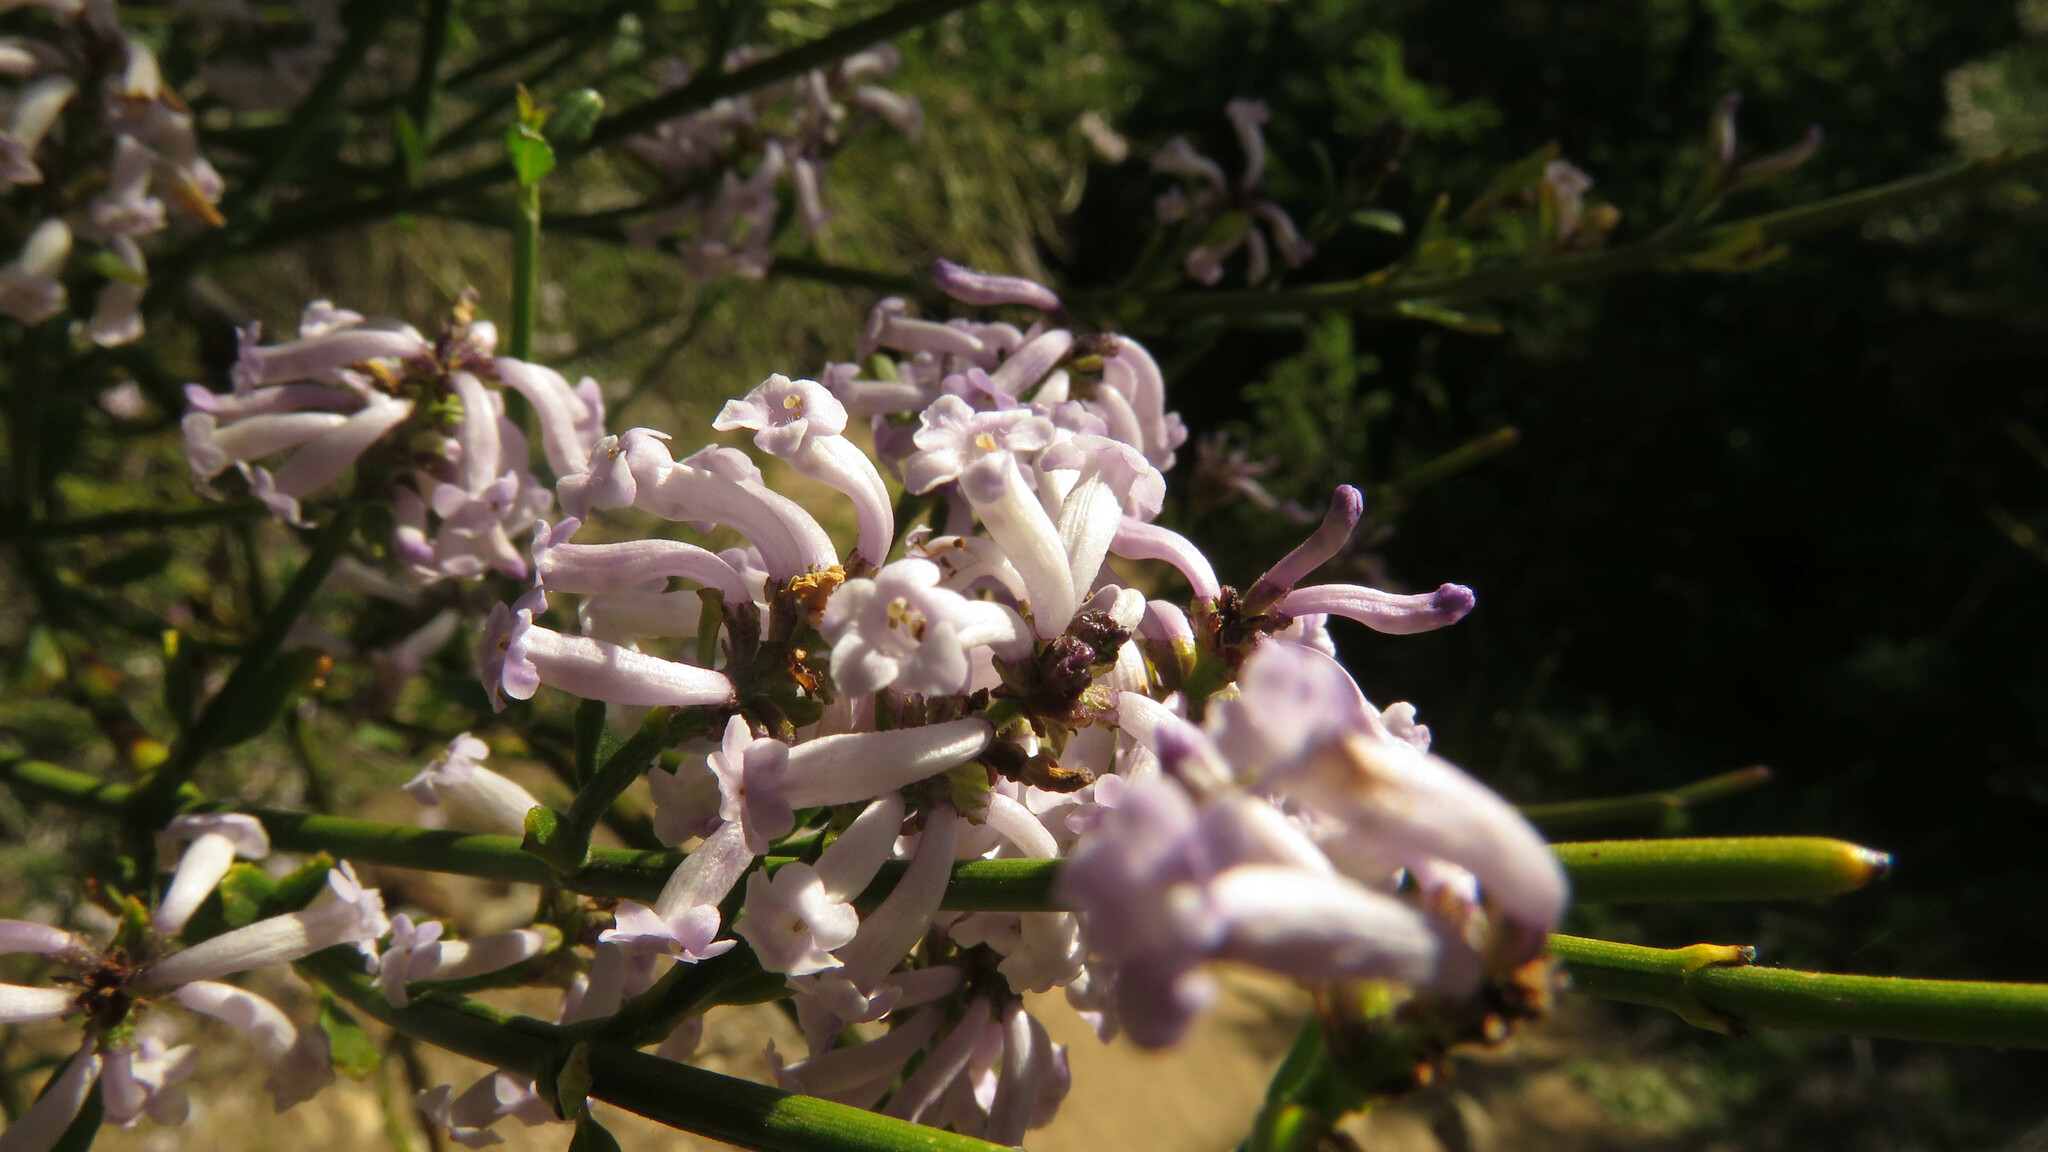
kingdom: Plantae
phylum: Tracheophyta
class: Magnoliopsida
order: Lamiales
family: Verbenaceae
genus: Diostea
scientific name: Diostea juncea
